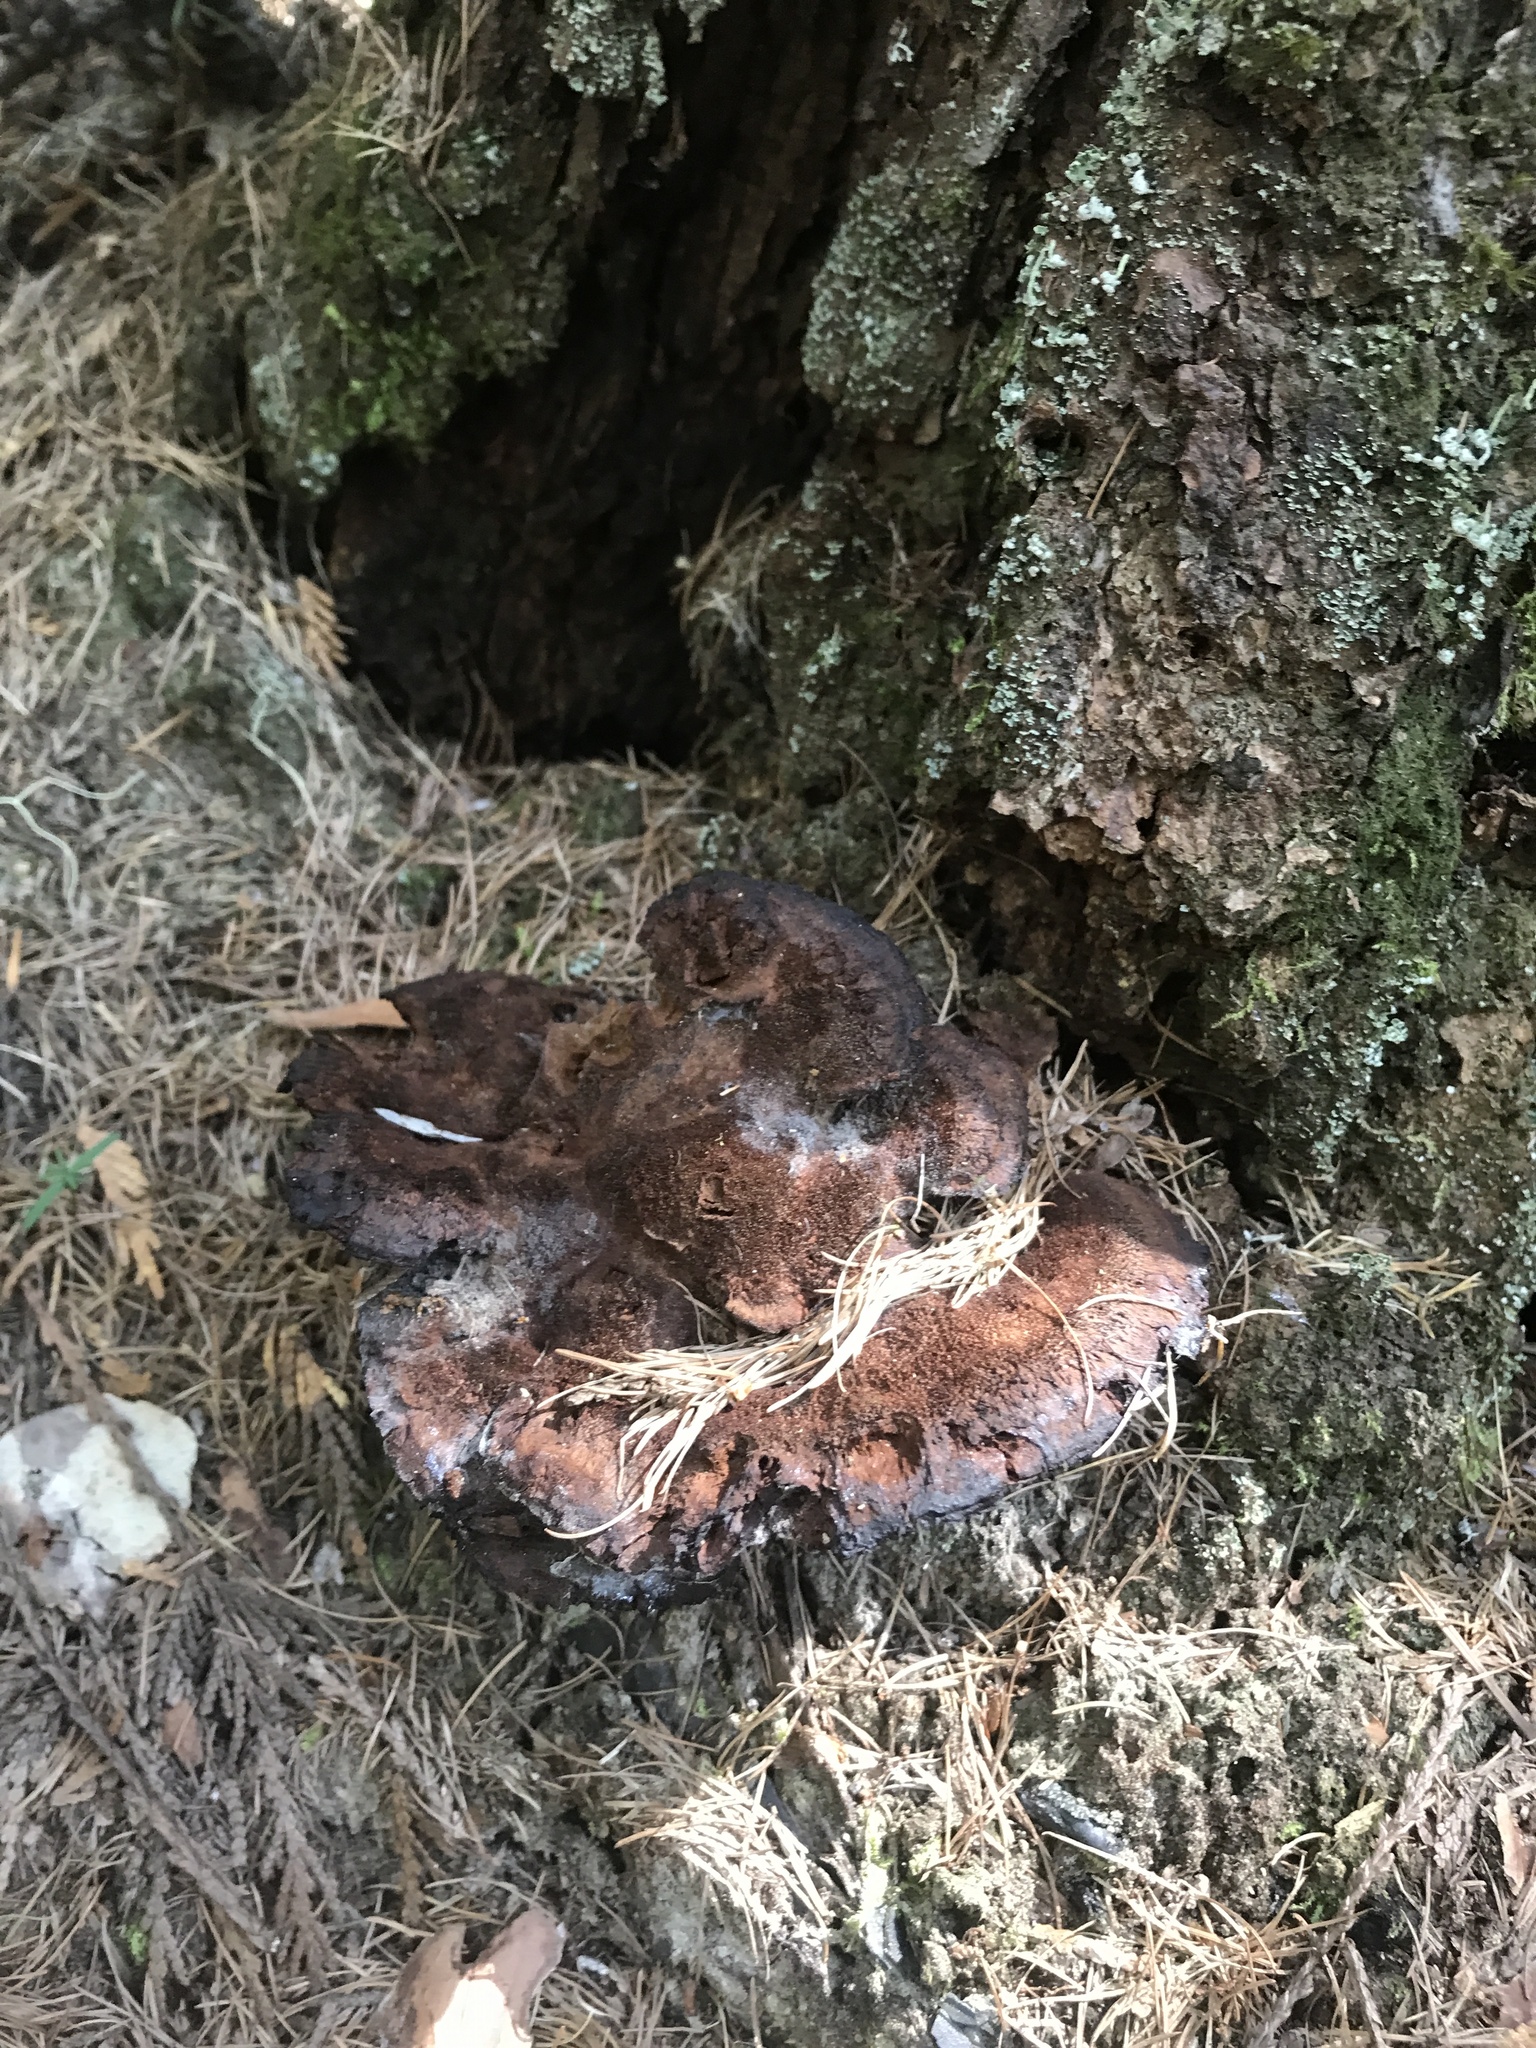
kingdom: Fungi
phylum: Basidiomycota
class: Agaricomycetes
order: Polyporales
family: Laetiporaceae
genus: Phaeolus
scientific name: Phaeolus schweinitzii
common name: Dyer's mazegill
